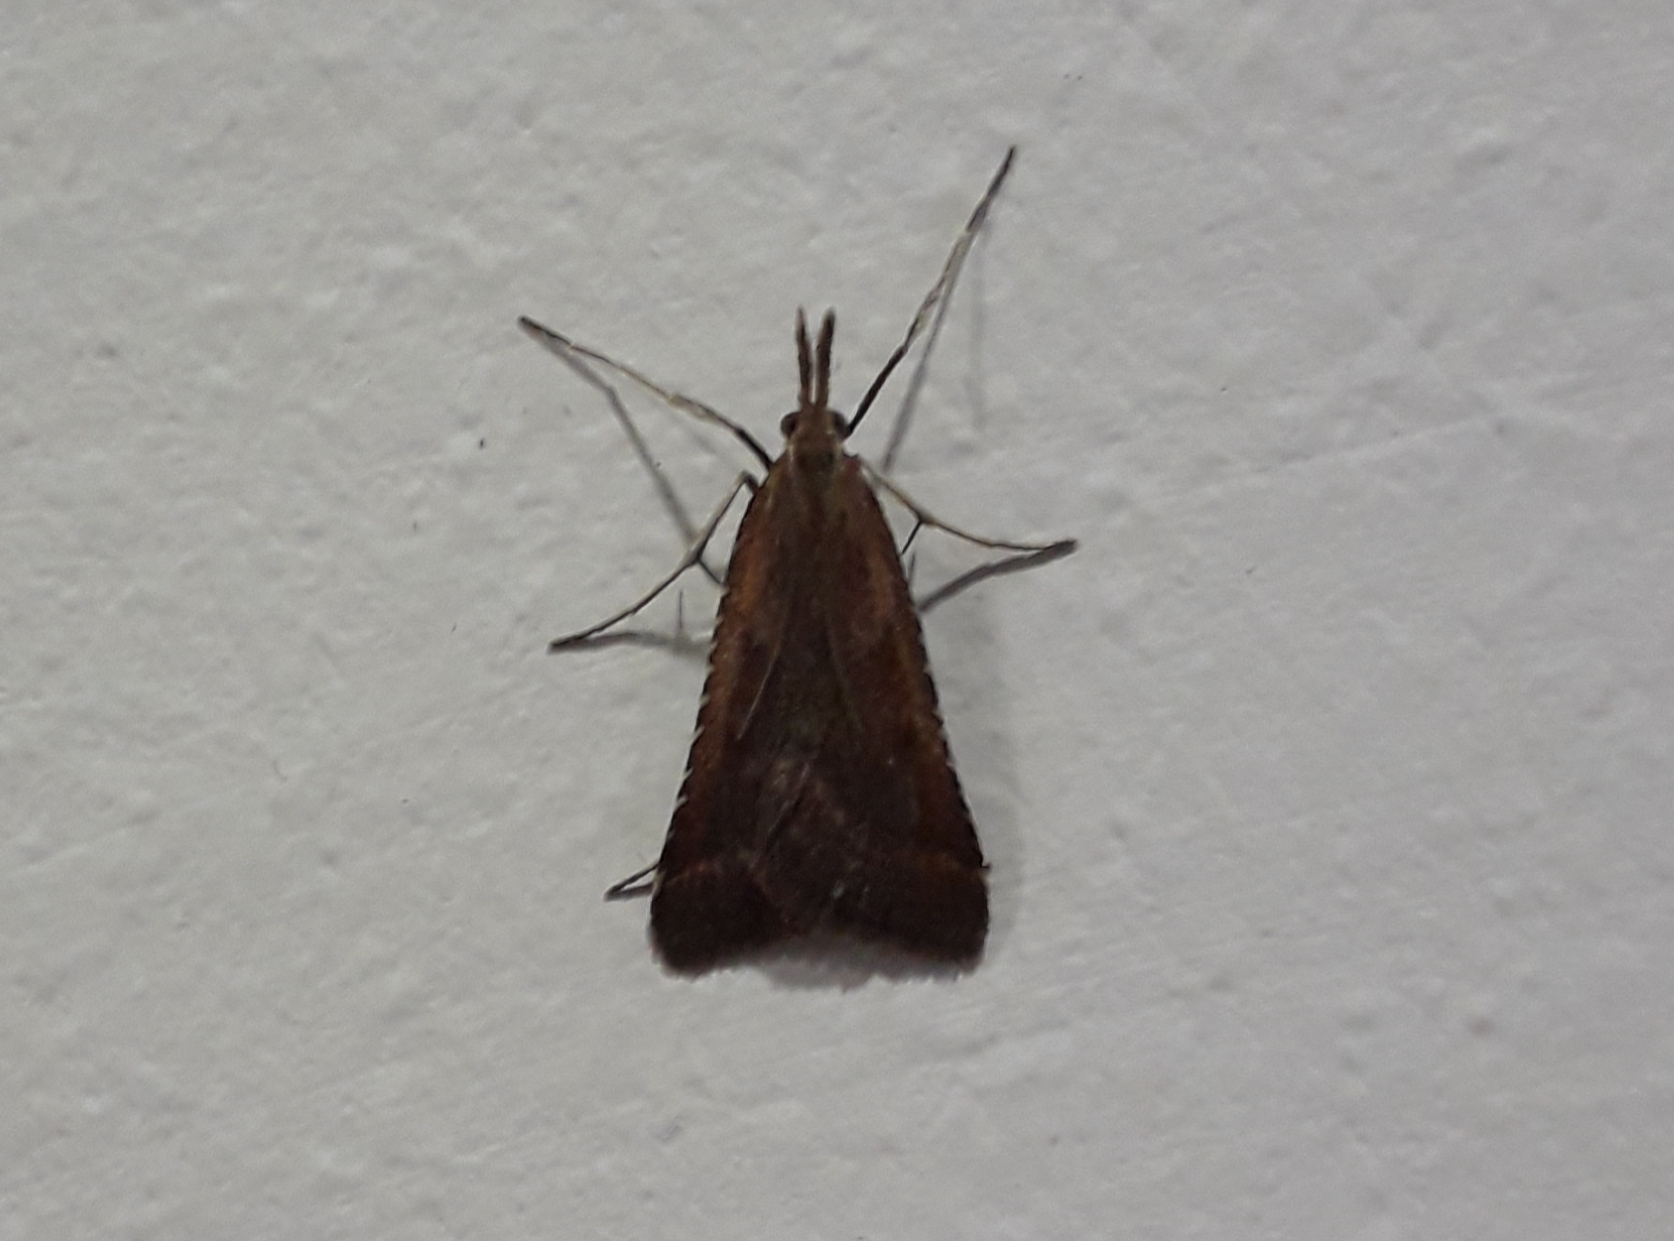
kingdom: Animalia
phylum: Arthropoda
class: Insecta
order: Lepidoptera
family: Pyralidae
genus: Synaphe
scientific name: Synaphe punctalis
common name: Long-legged tabby
